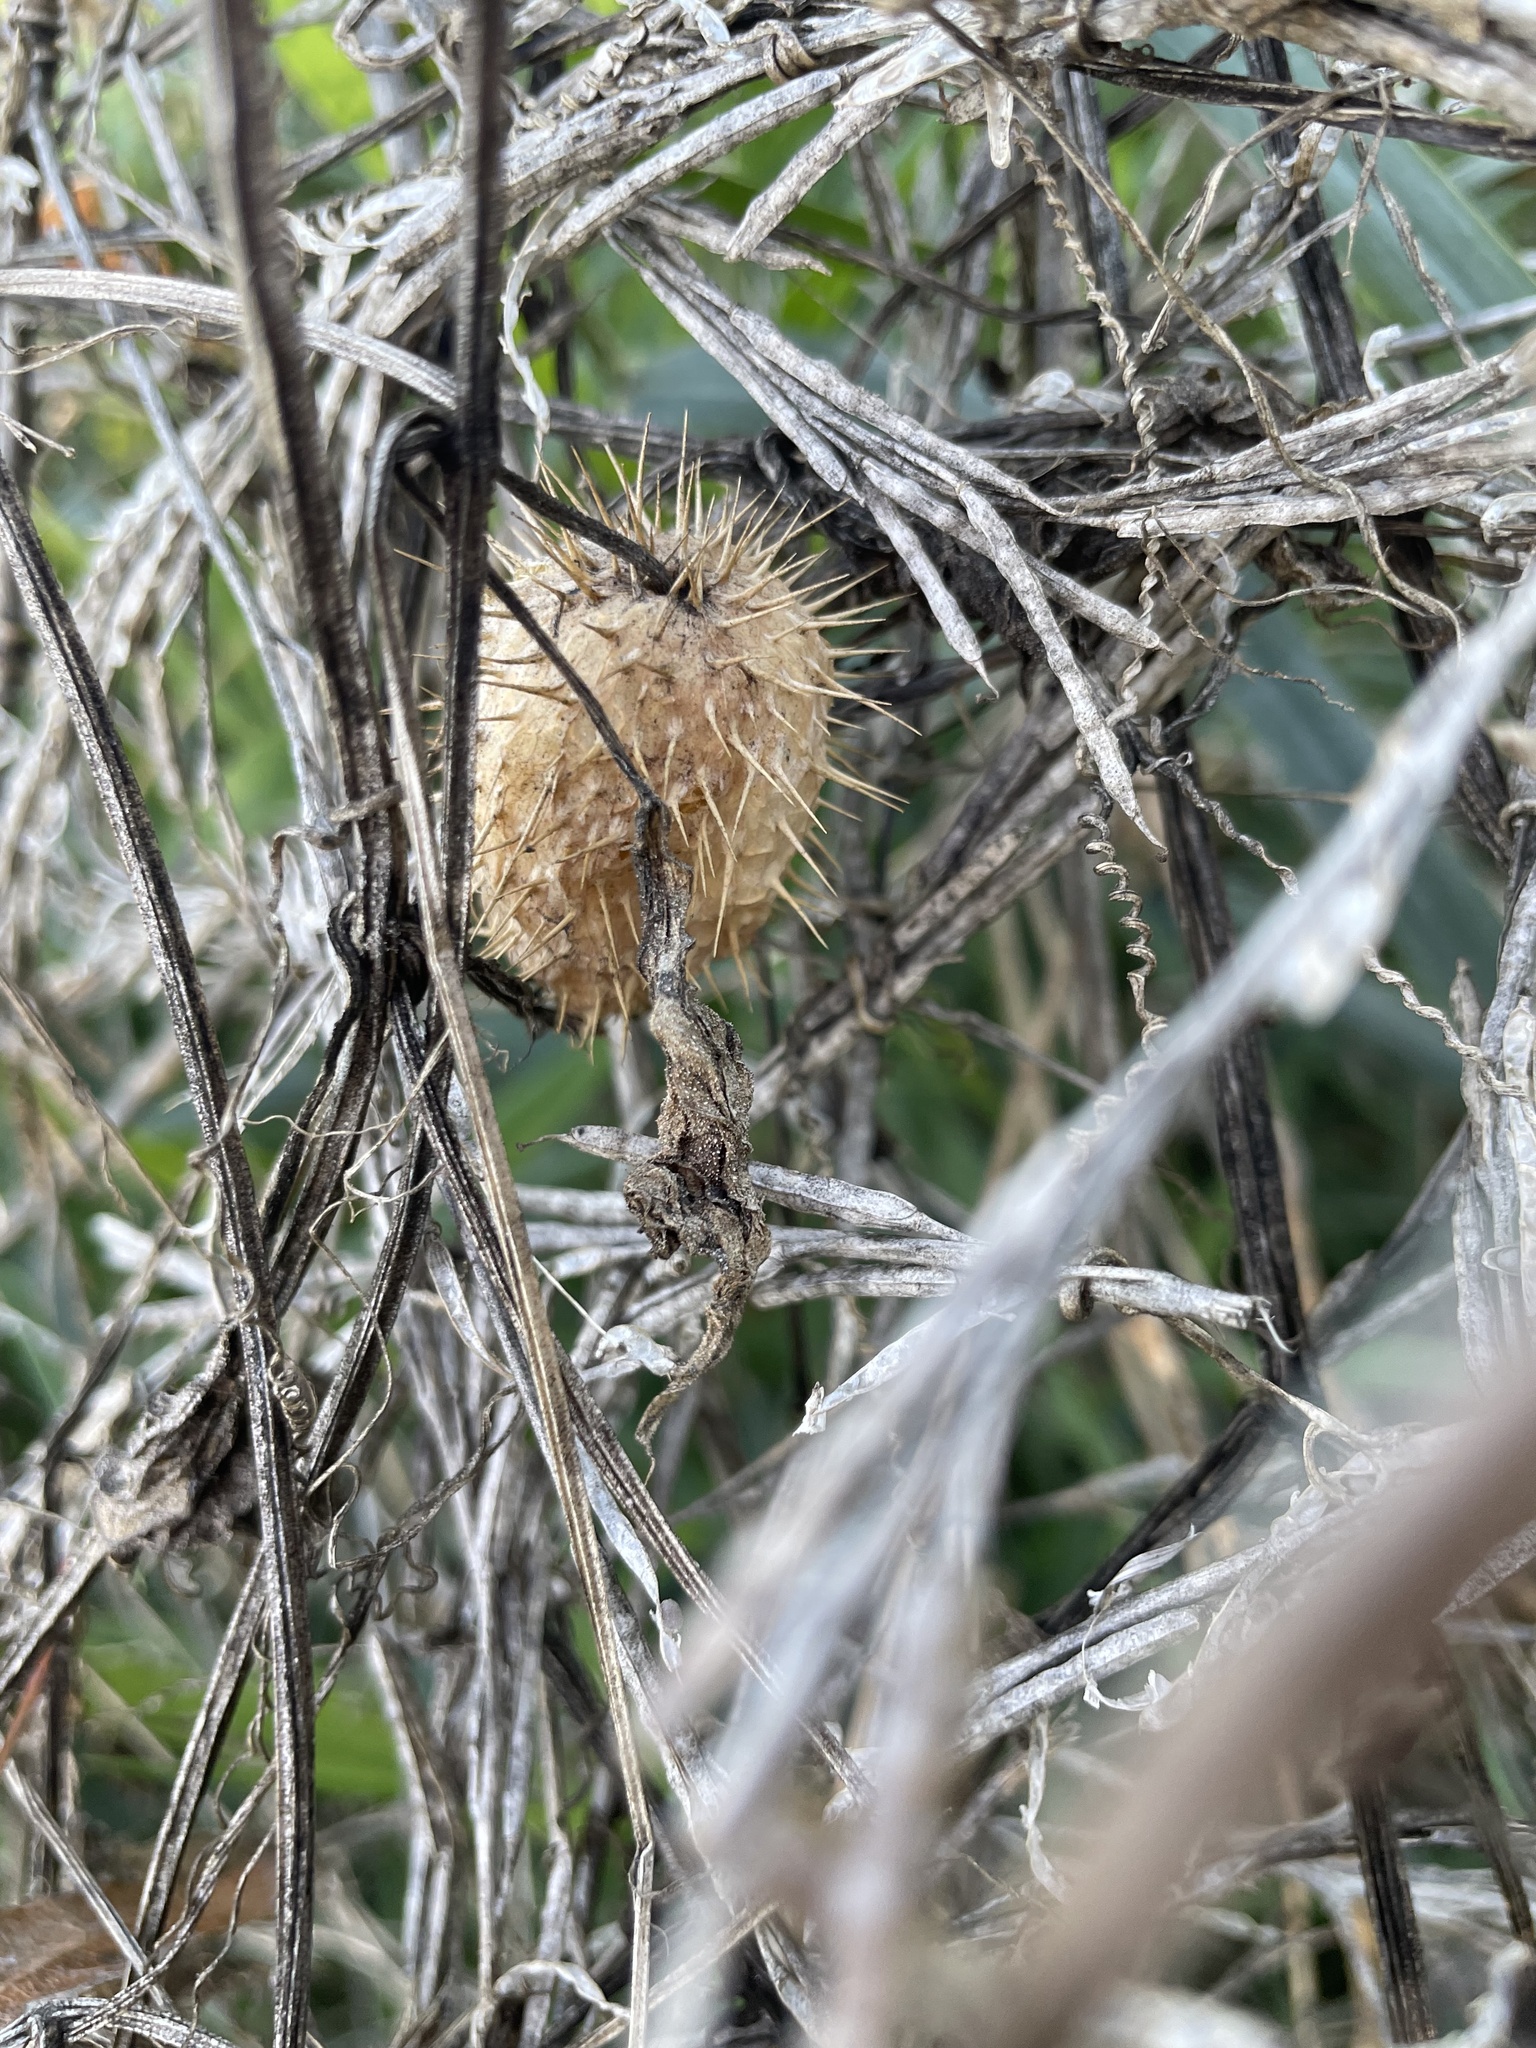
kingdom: Plantae
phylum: Tracheophyta
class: Magnoliopsida
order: Cucurbitales
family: Cucurbitaceae
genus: Echinocystis
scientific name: Echinocystis lobata
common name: Wild cucumber
